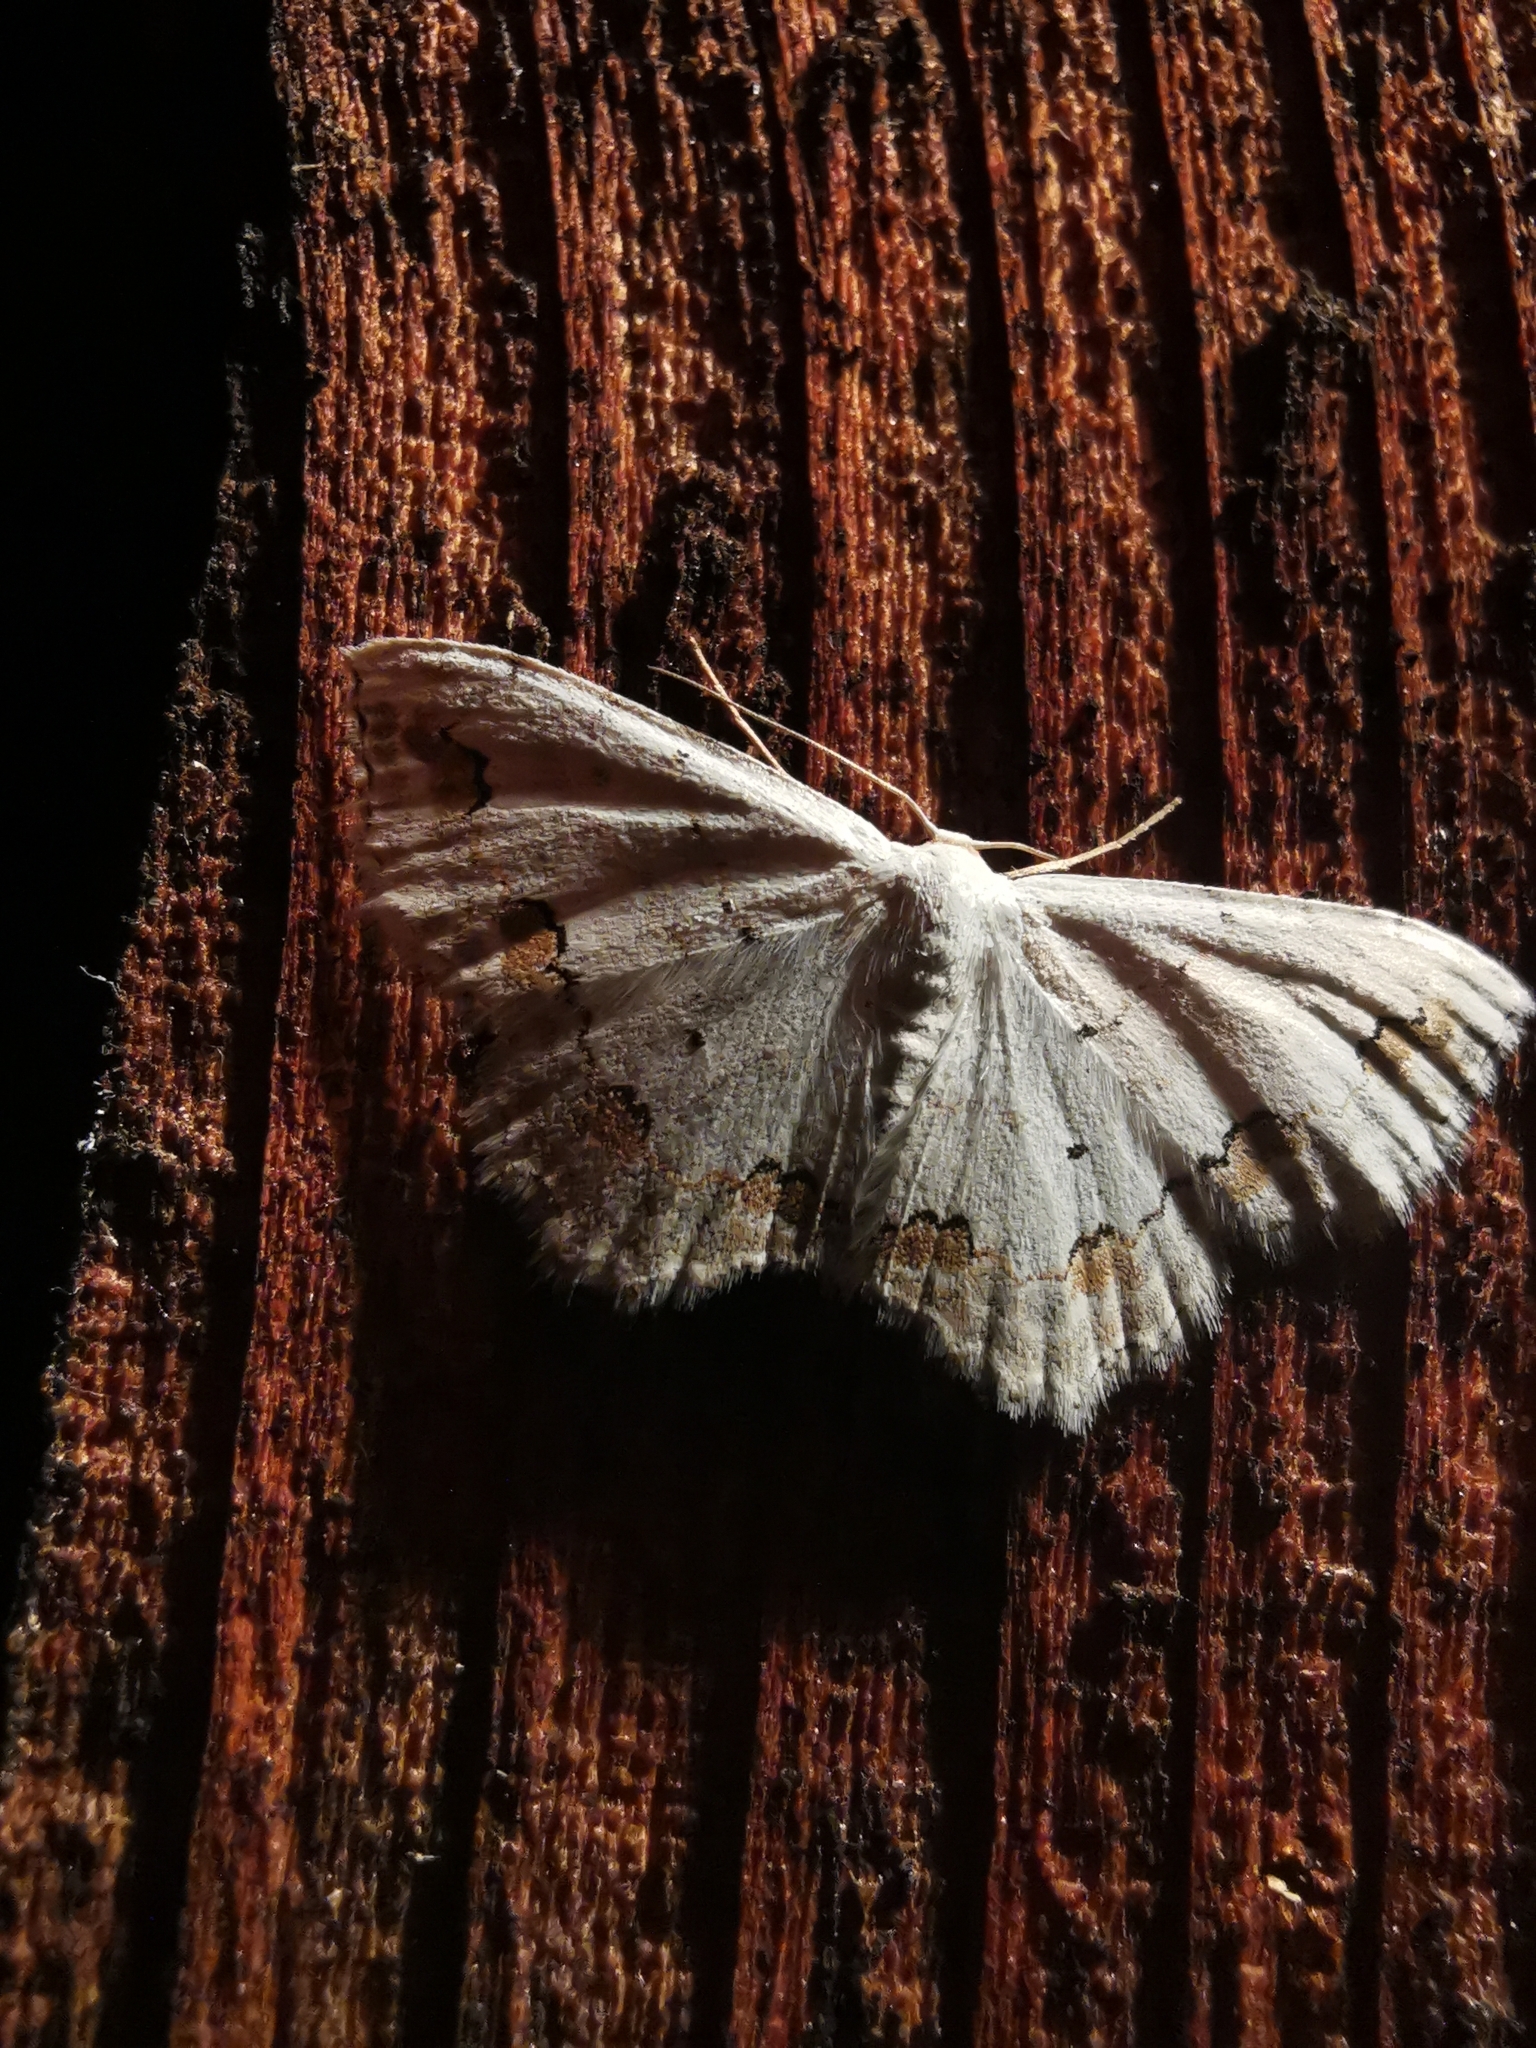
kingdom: Animalia
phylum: Arthropoda
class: Insecta
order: Lepidoptera
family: Geometridae
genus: Scopula
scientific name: Scopula ornata
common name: Lace border
